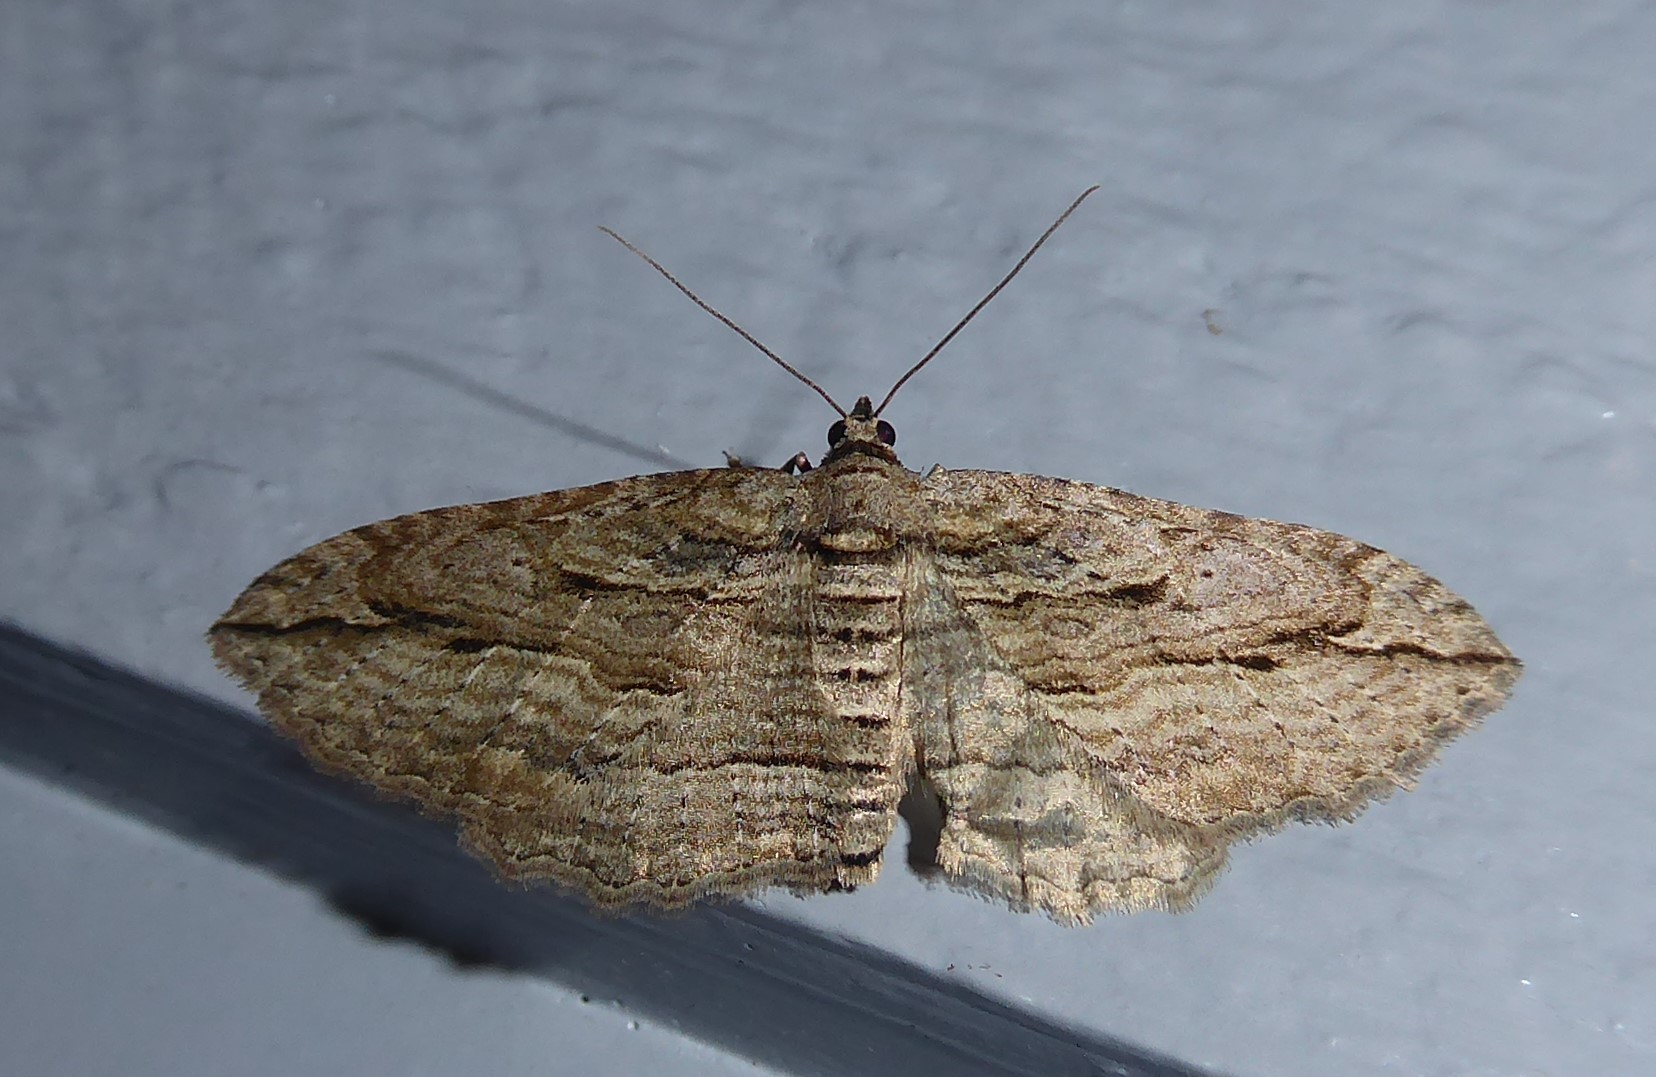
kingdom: Animalia
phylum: Arthropoda
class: Insecta
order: Lepidoptera
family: Geometridae
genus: Austrocidaria
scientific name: Austrocidaria gobiata
